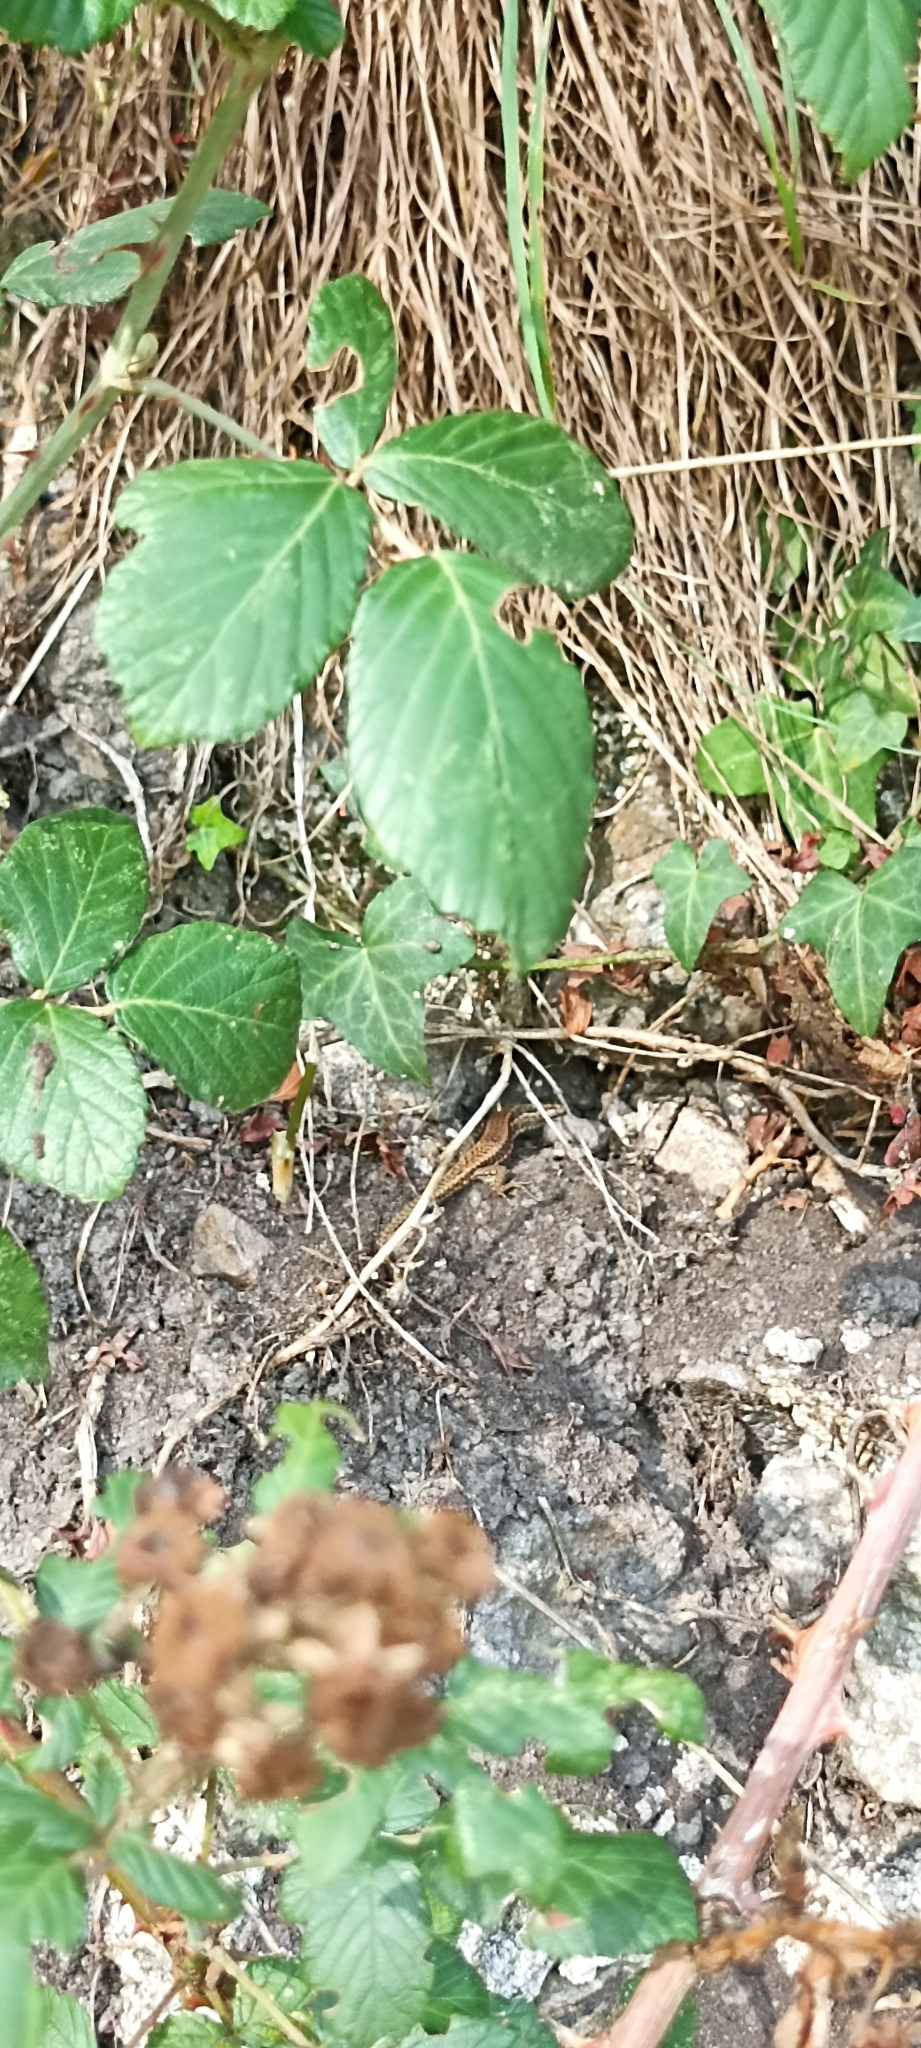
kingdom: Animalia
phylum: Chordata
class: Squamata
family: Lacertidae
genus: Podarcis
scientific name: Podarcis muralis
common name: Common wall lizard
